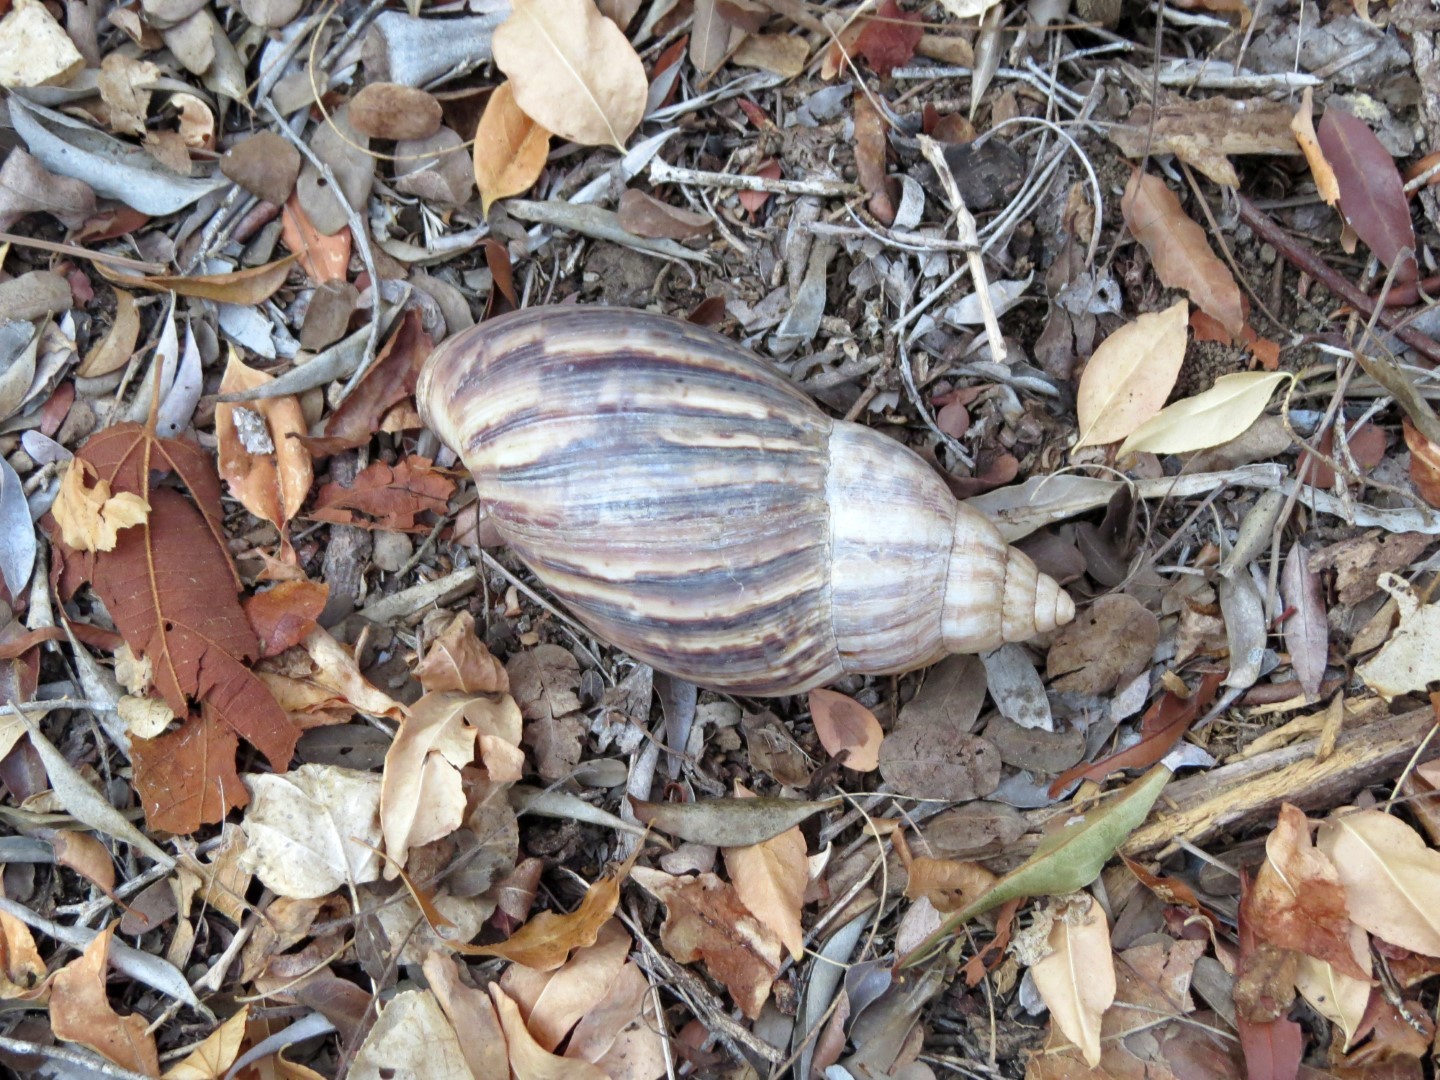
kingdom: Animalia
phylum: Mollusca
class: Gastropoda
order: Stylommatophora
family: Achatinidae
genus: Lissachatina
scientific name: Lissachatina fulica
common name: Giant african snail
